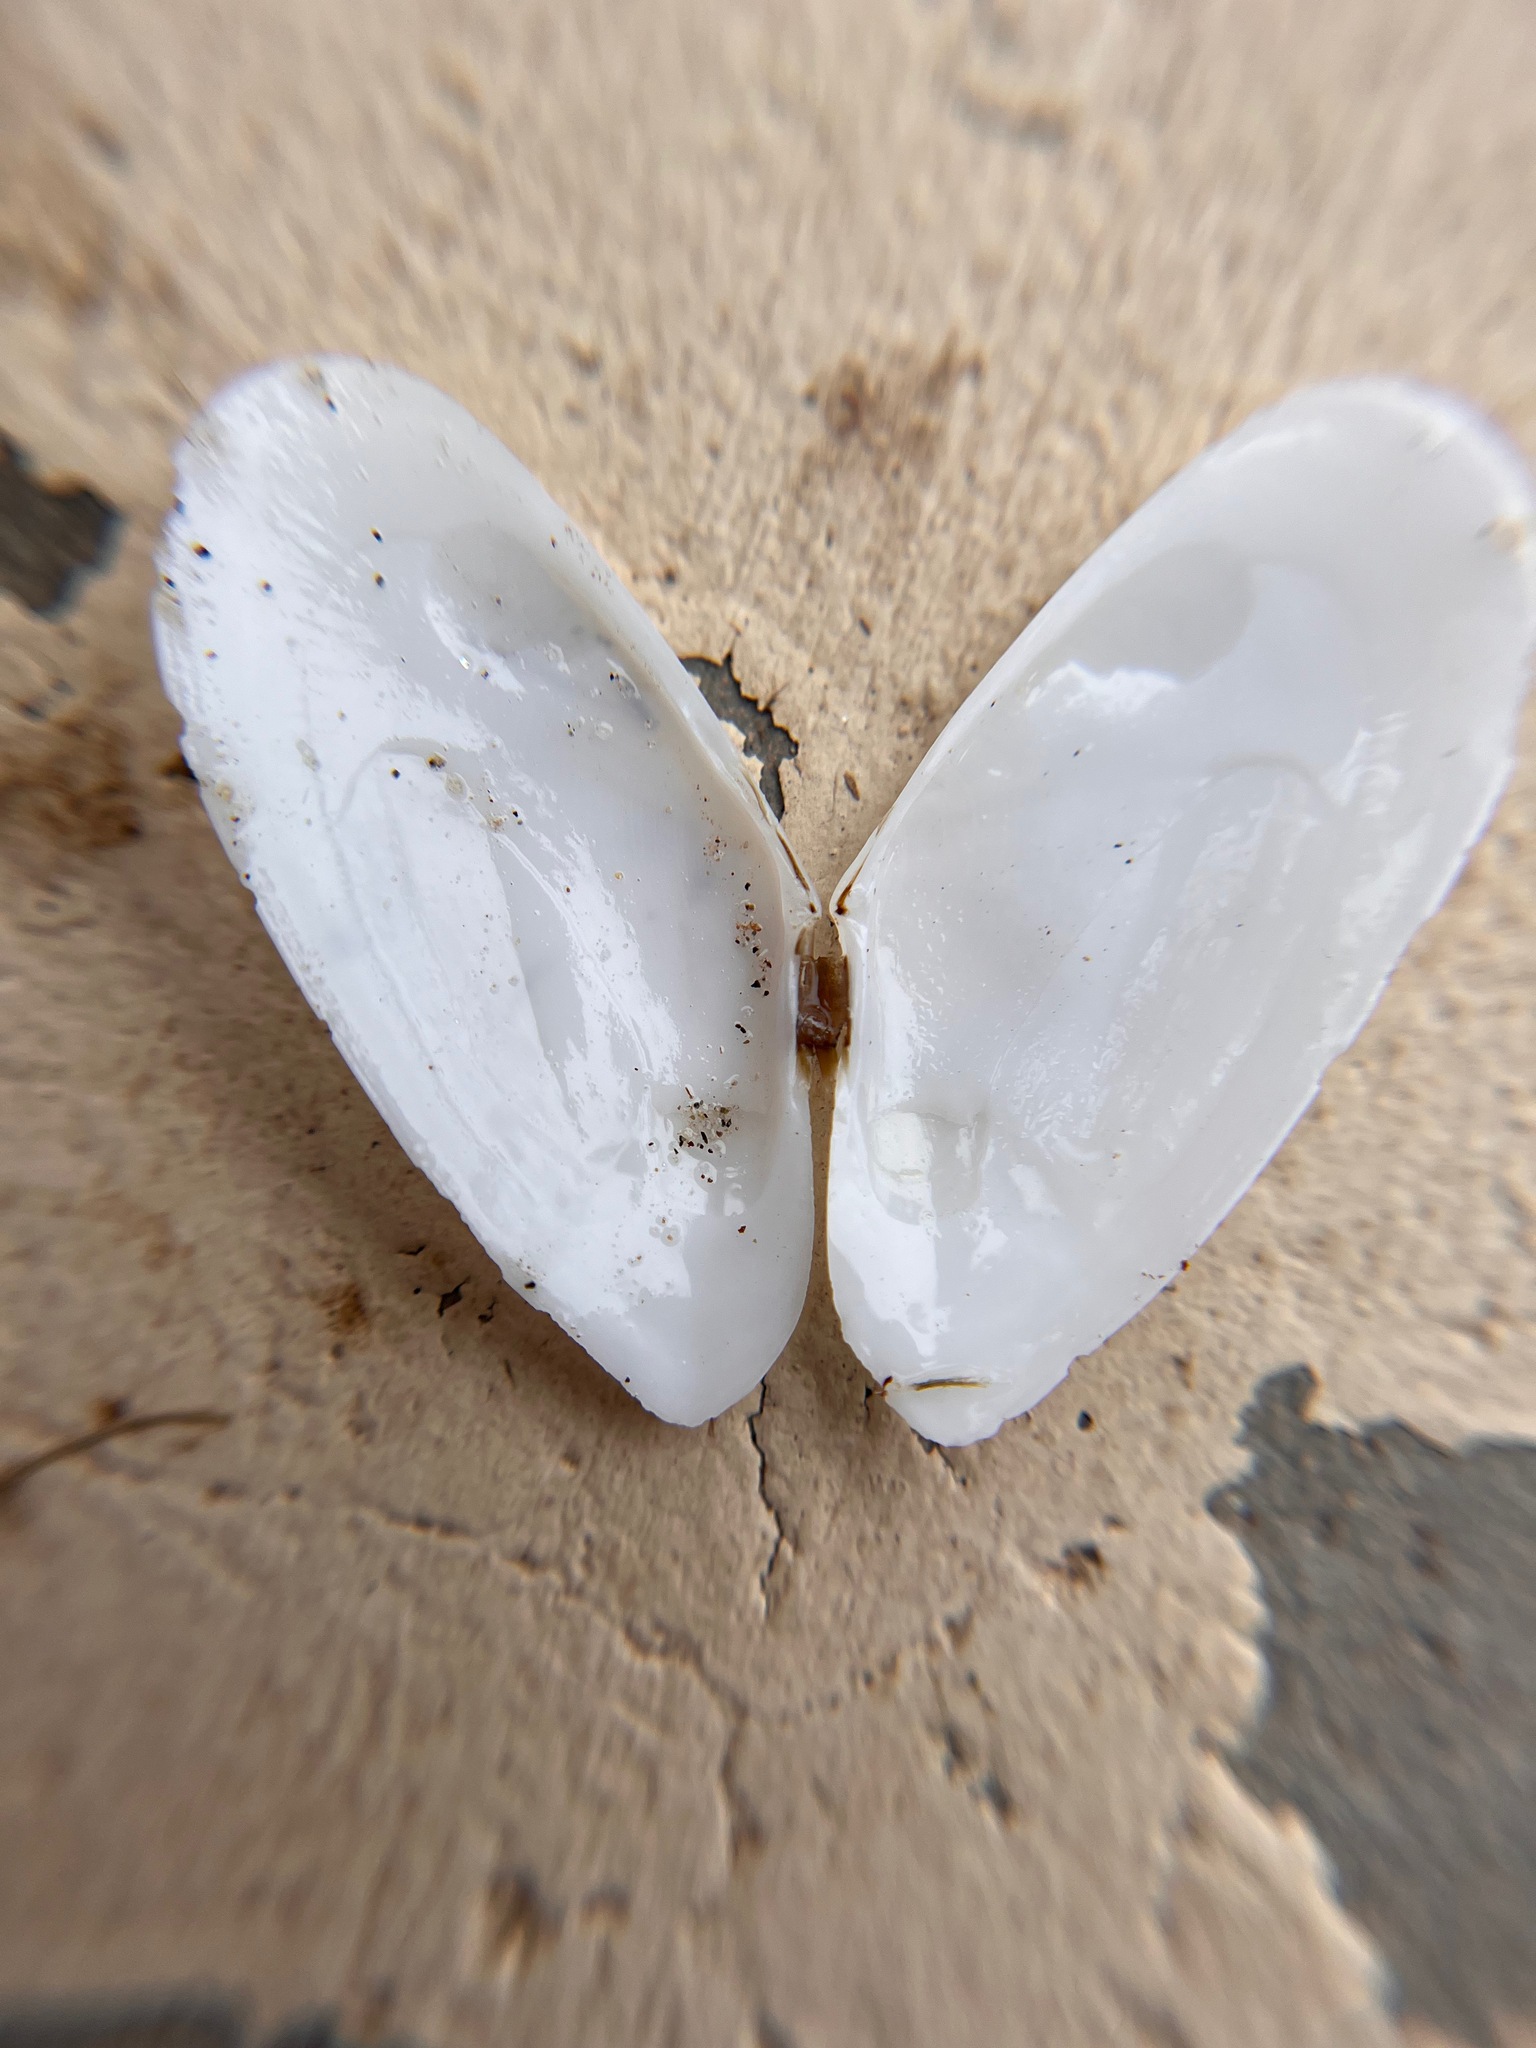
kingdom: Animalia
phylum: Mollusca
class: Bivalvia
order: Cardiida
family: Tellinidae
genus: Megangulus
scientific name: Megangulus bodegensis
